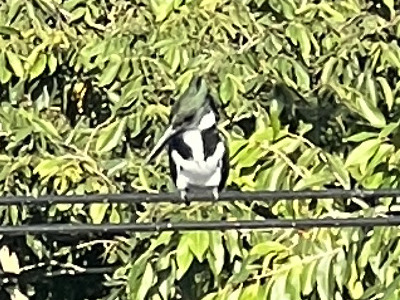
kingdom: Animalia
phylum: Chordata
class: Aves
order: Coraciiformes
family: Alcedinidae
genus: Chloroceryle
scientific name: Chloroceryle amazona
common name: Amazon kingfisher
